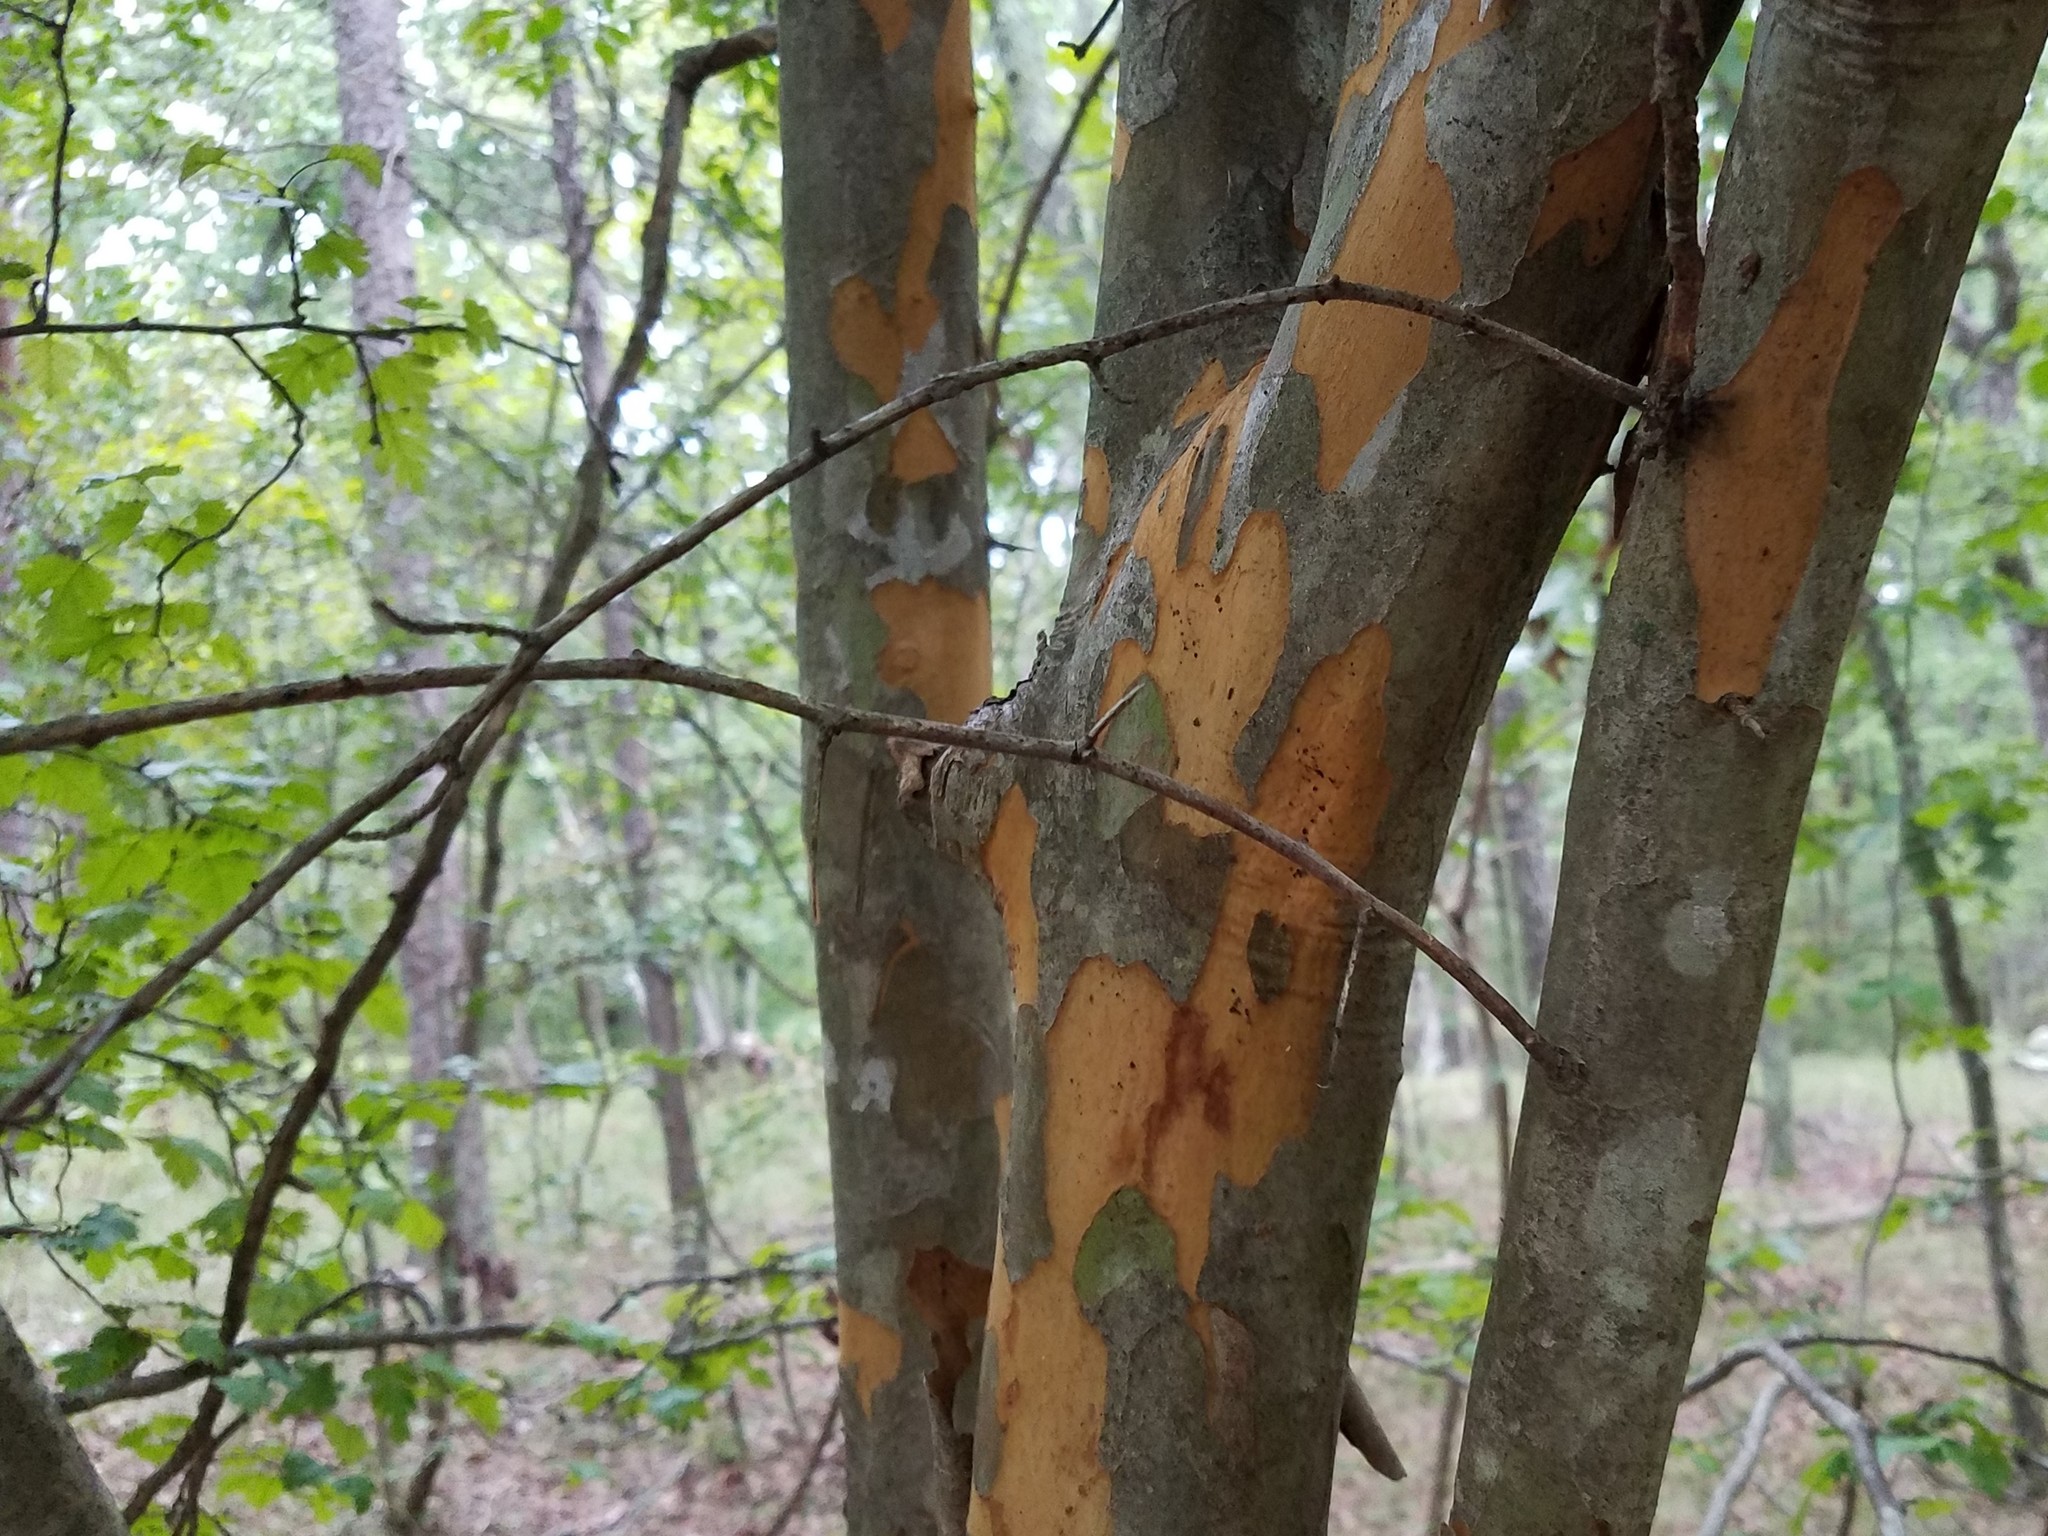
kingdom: Plantae
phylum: Tracheophyta
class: Magnoliopsida
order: Rosales
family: Rosaceae
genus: Crataegus
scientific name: Crataegus marshallii
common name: Parsley-hawthorn
